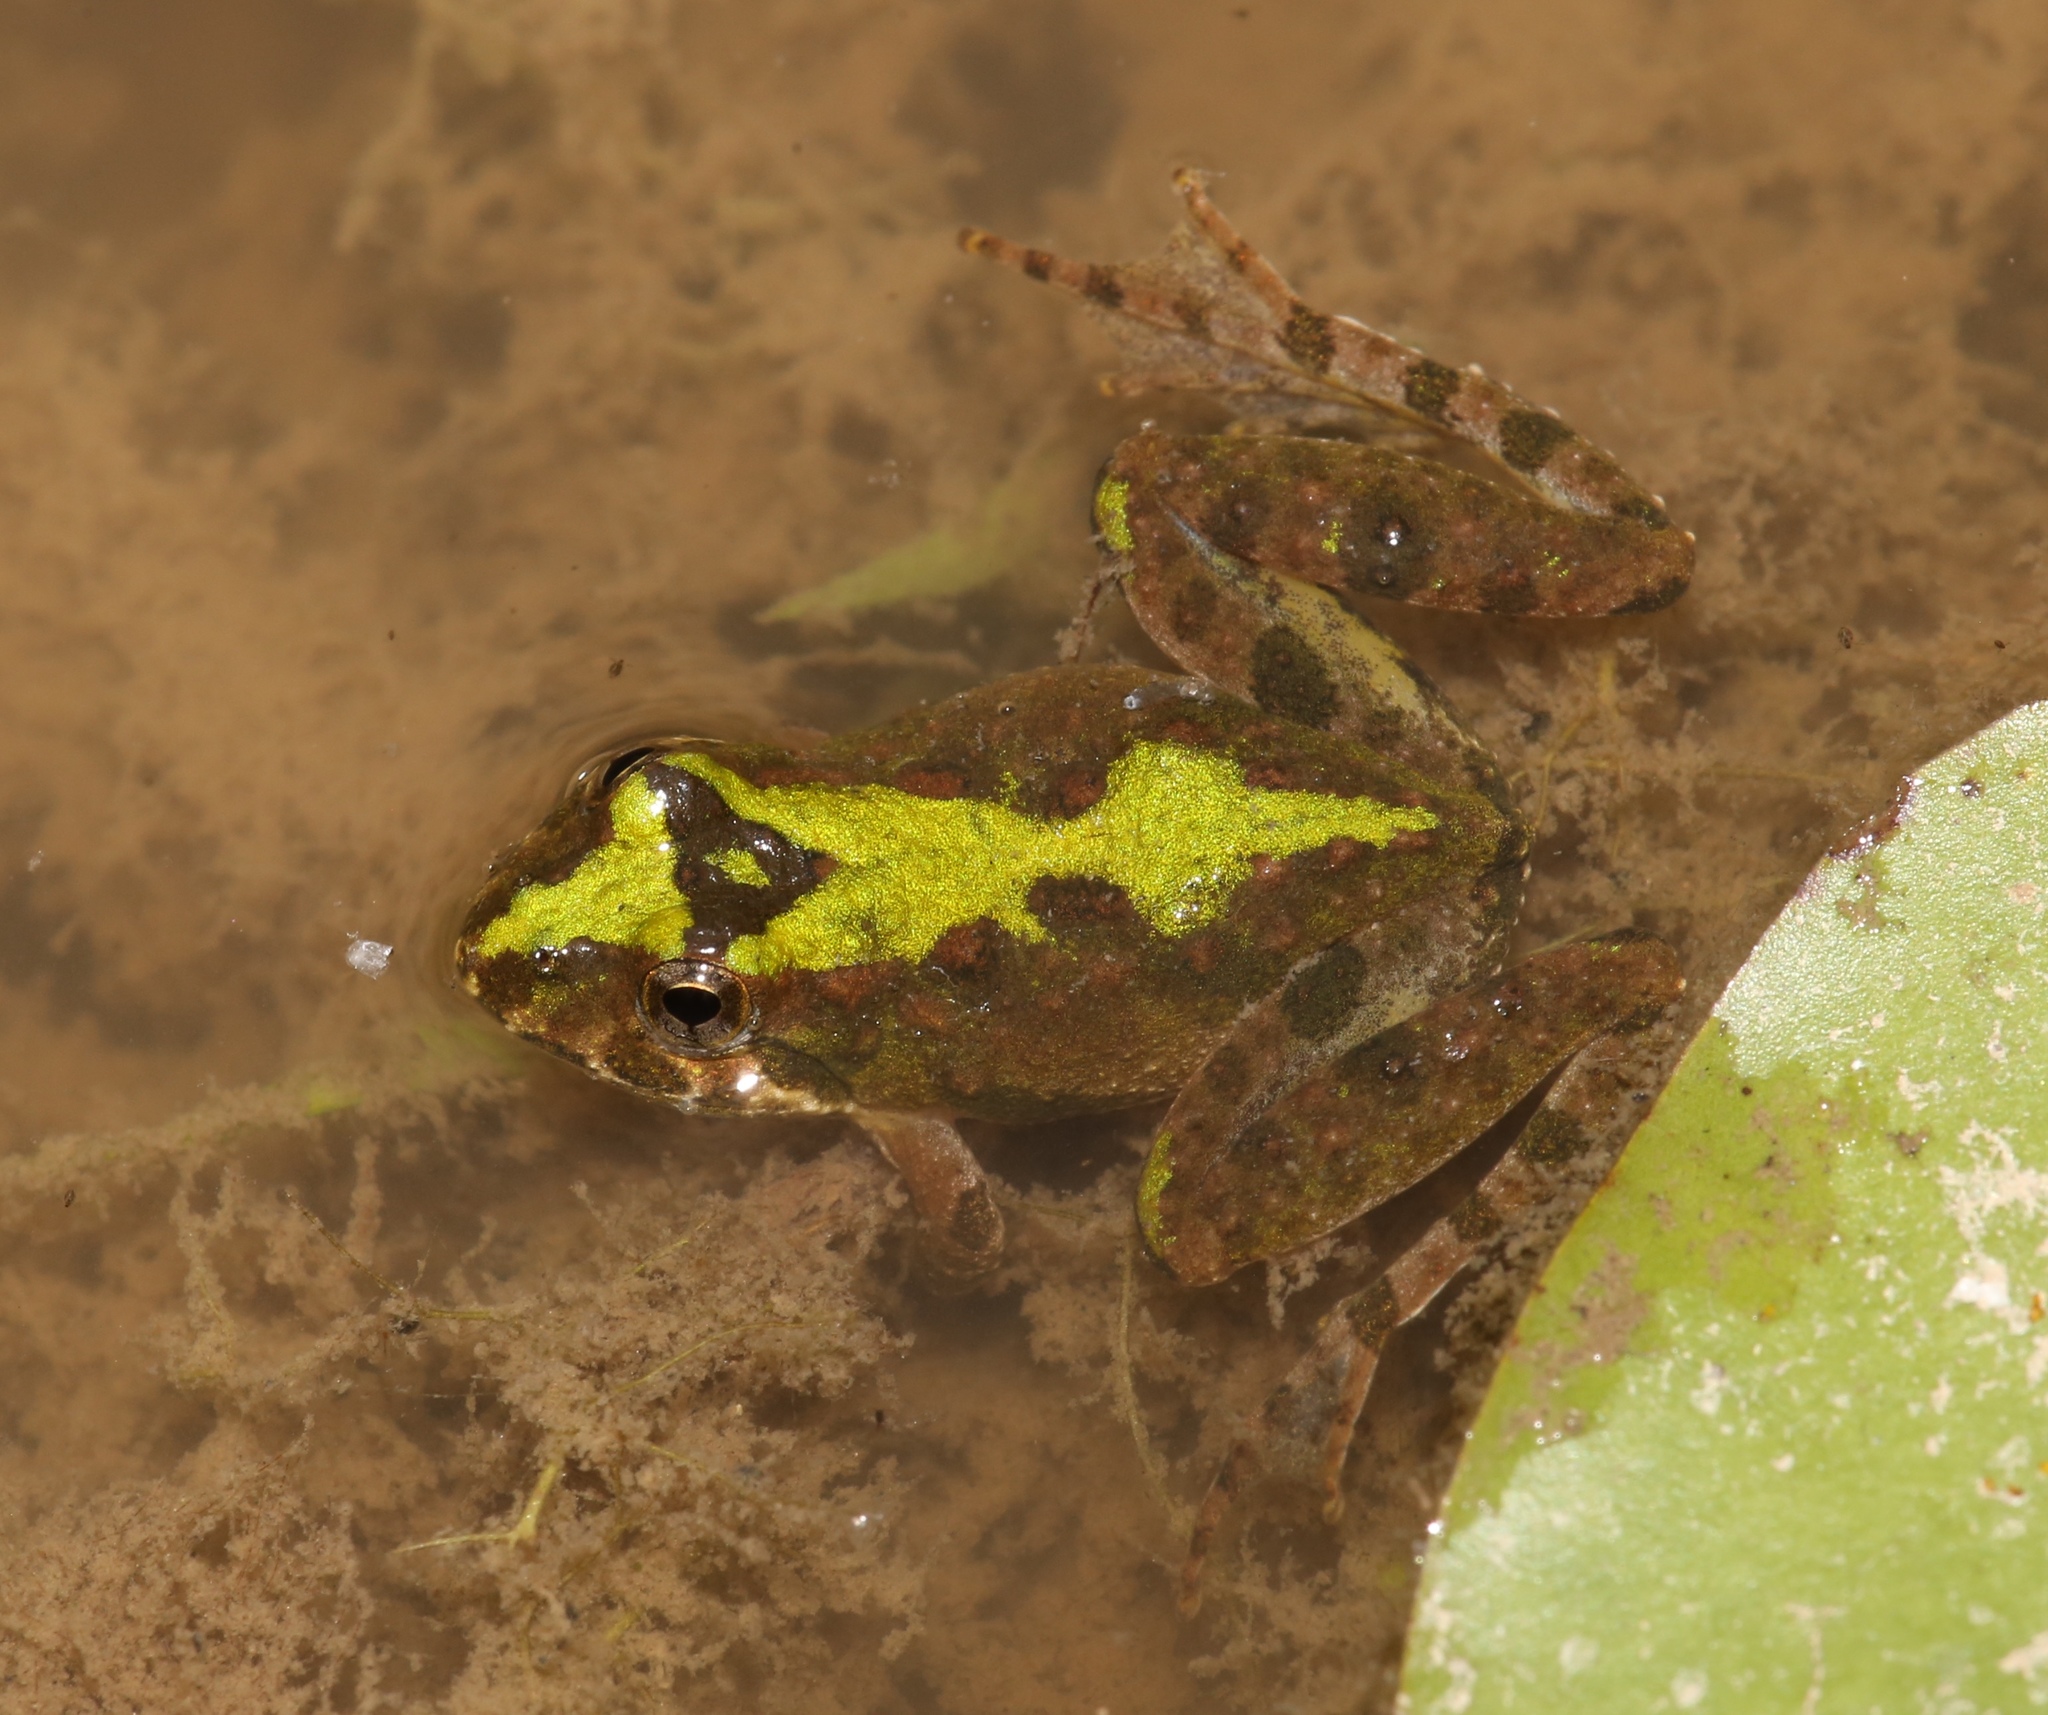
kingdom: Animalia
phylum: Chordata
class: Amphibia
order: Anura
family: Hylidae
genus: Acris
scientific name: Acris crepitans
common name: Northern cricket frog
